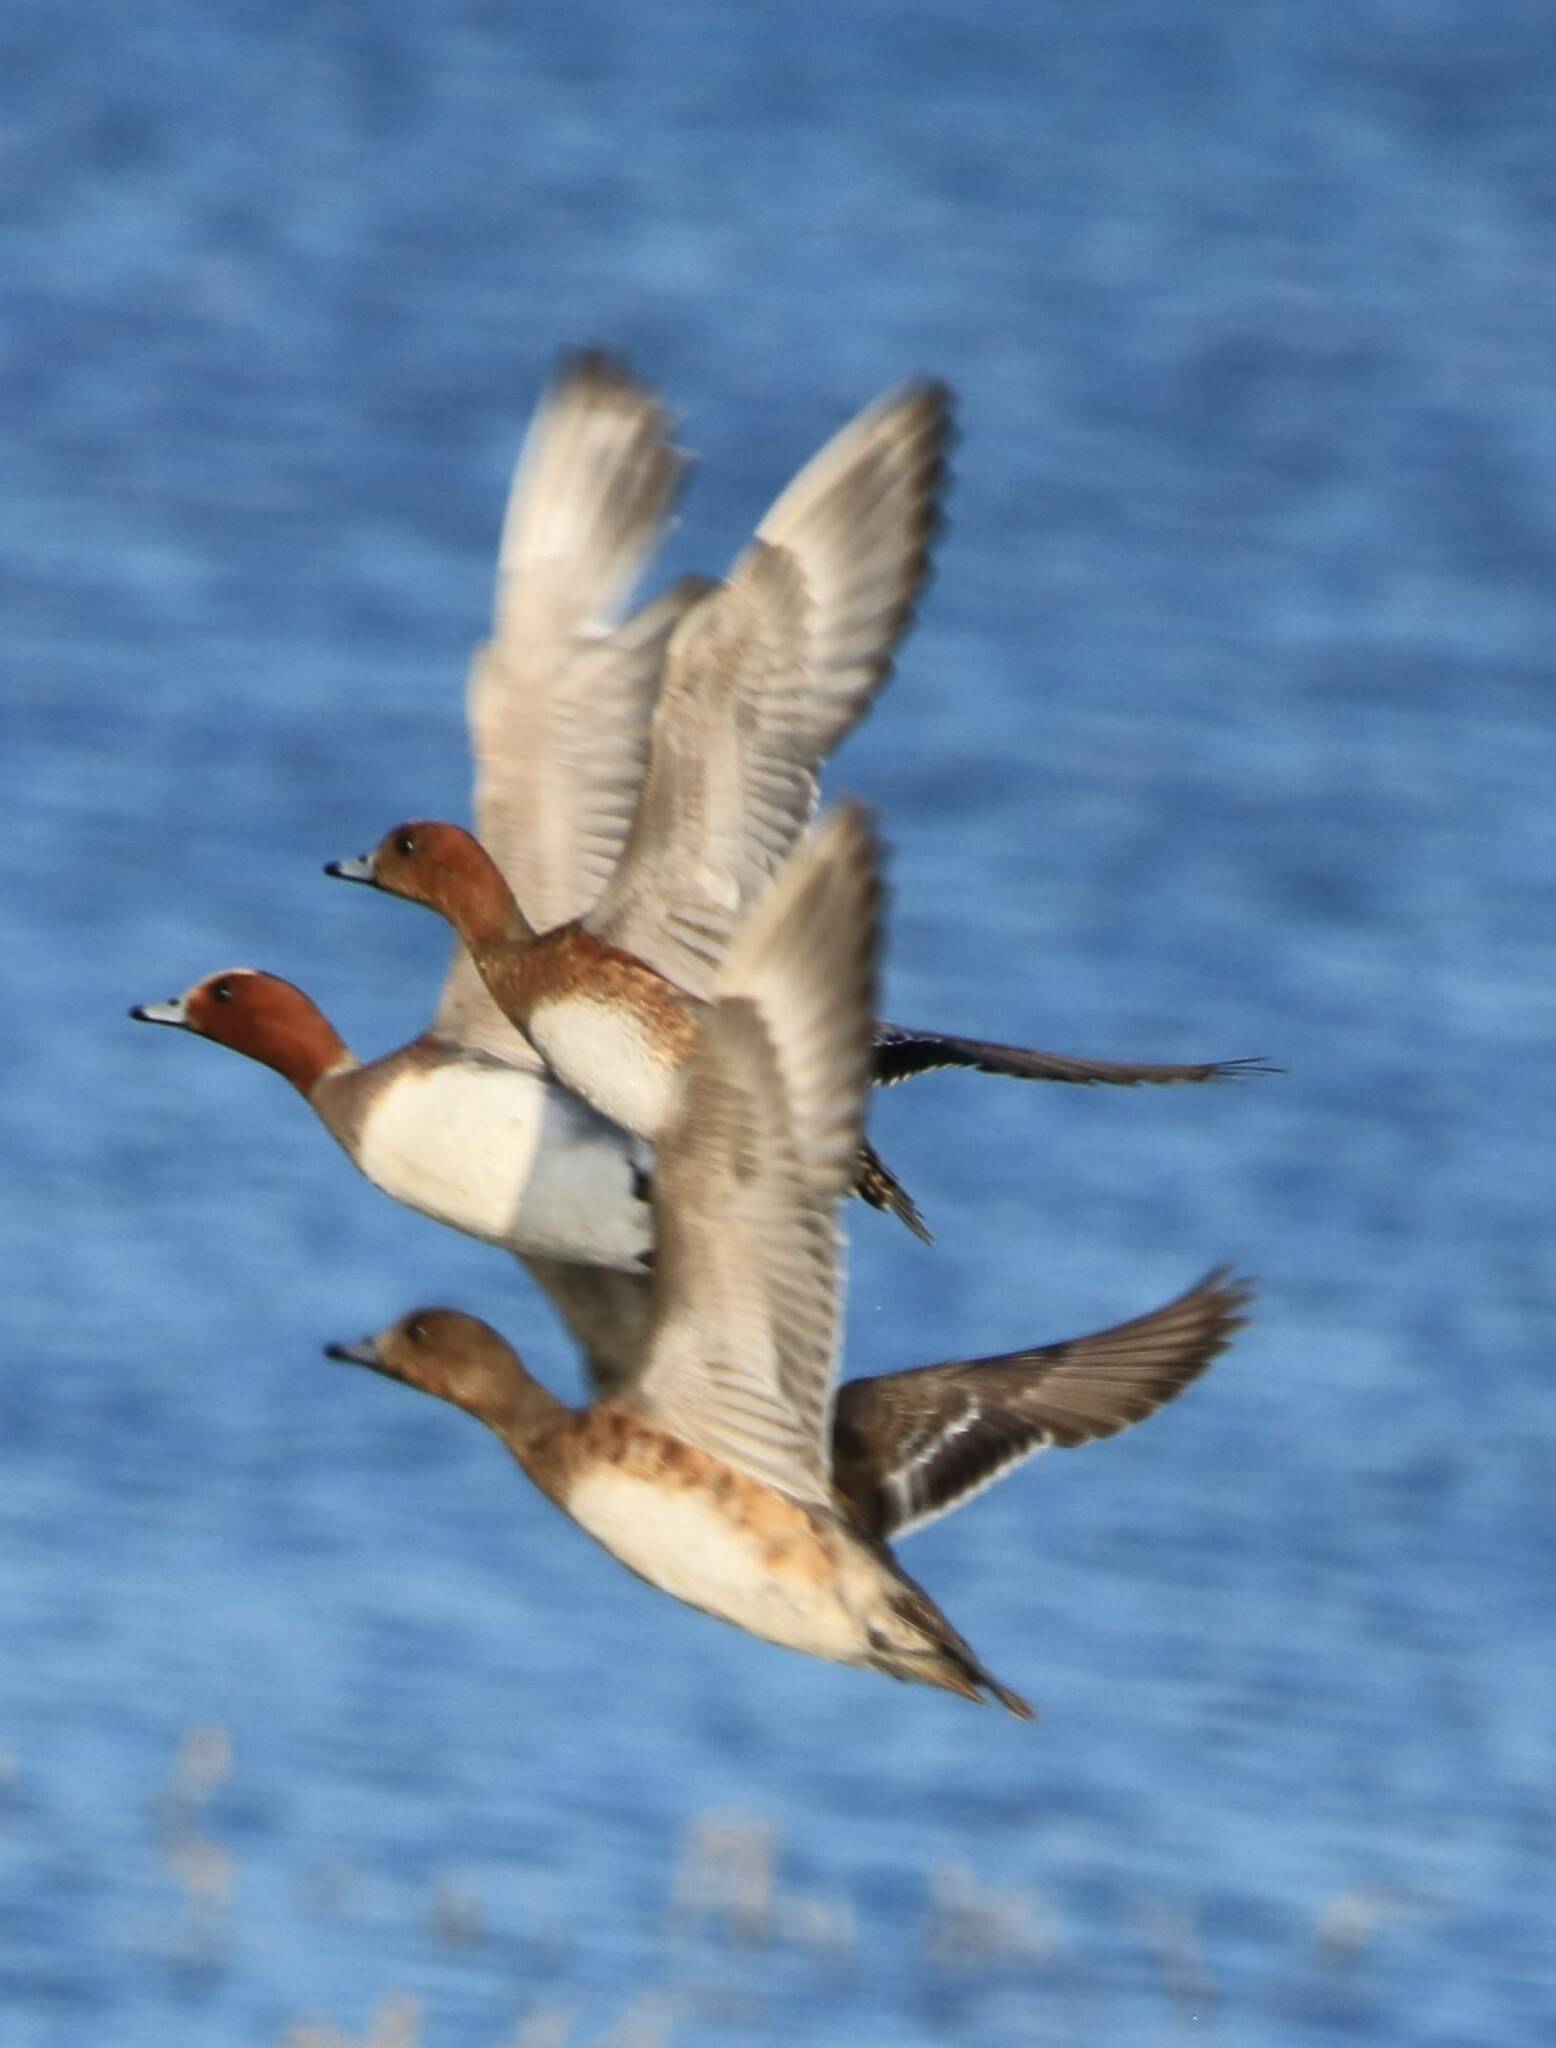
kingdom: Animalia
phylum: Chordata
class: Aves
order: Anseriformes
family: Anatidae
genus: Mareca
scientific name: Mareca penelope
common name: Eurasian wigeon
